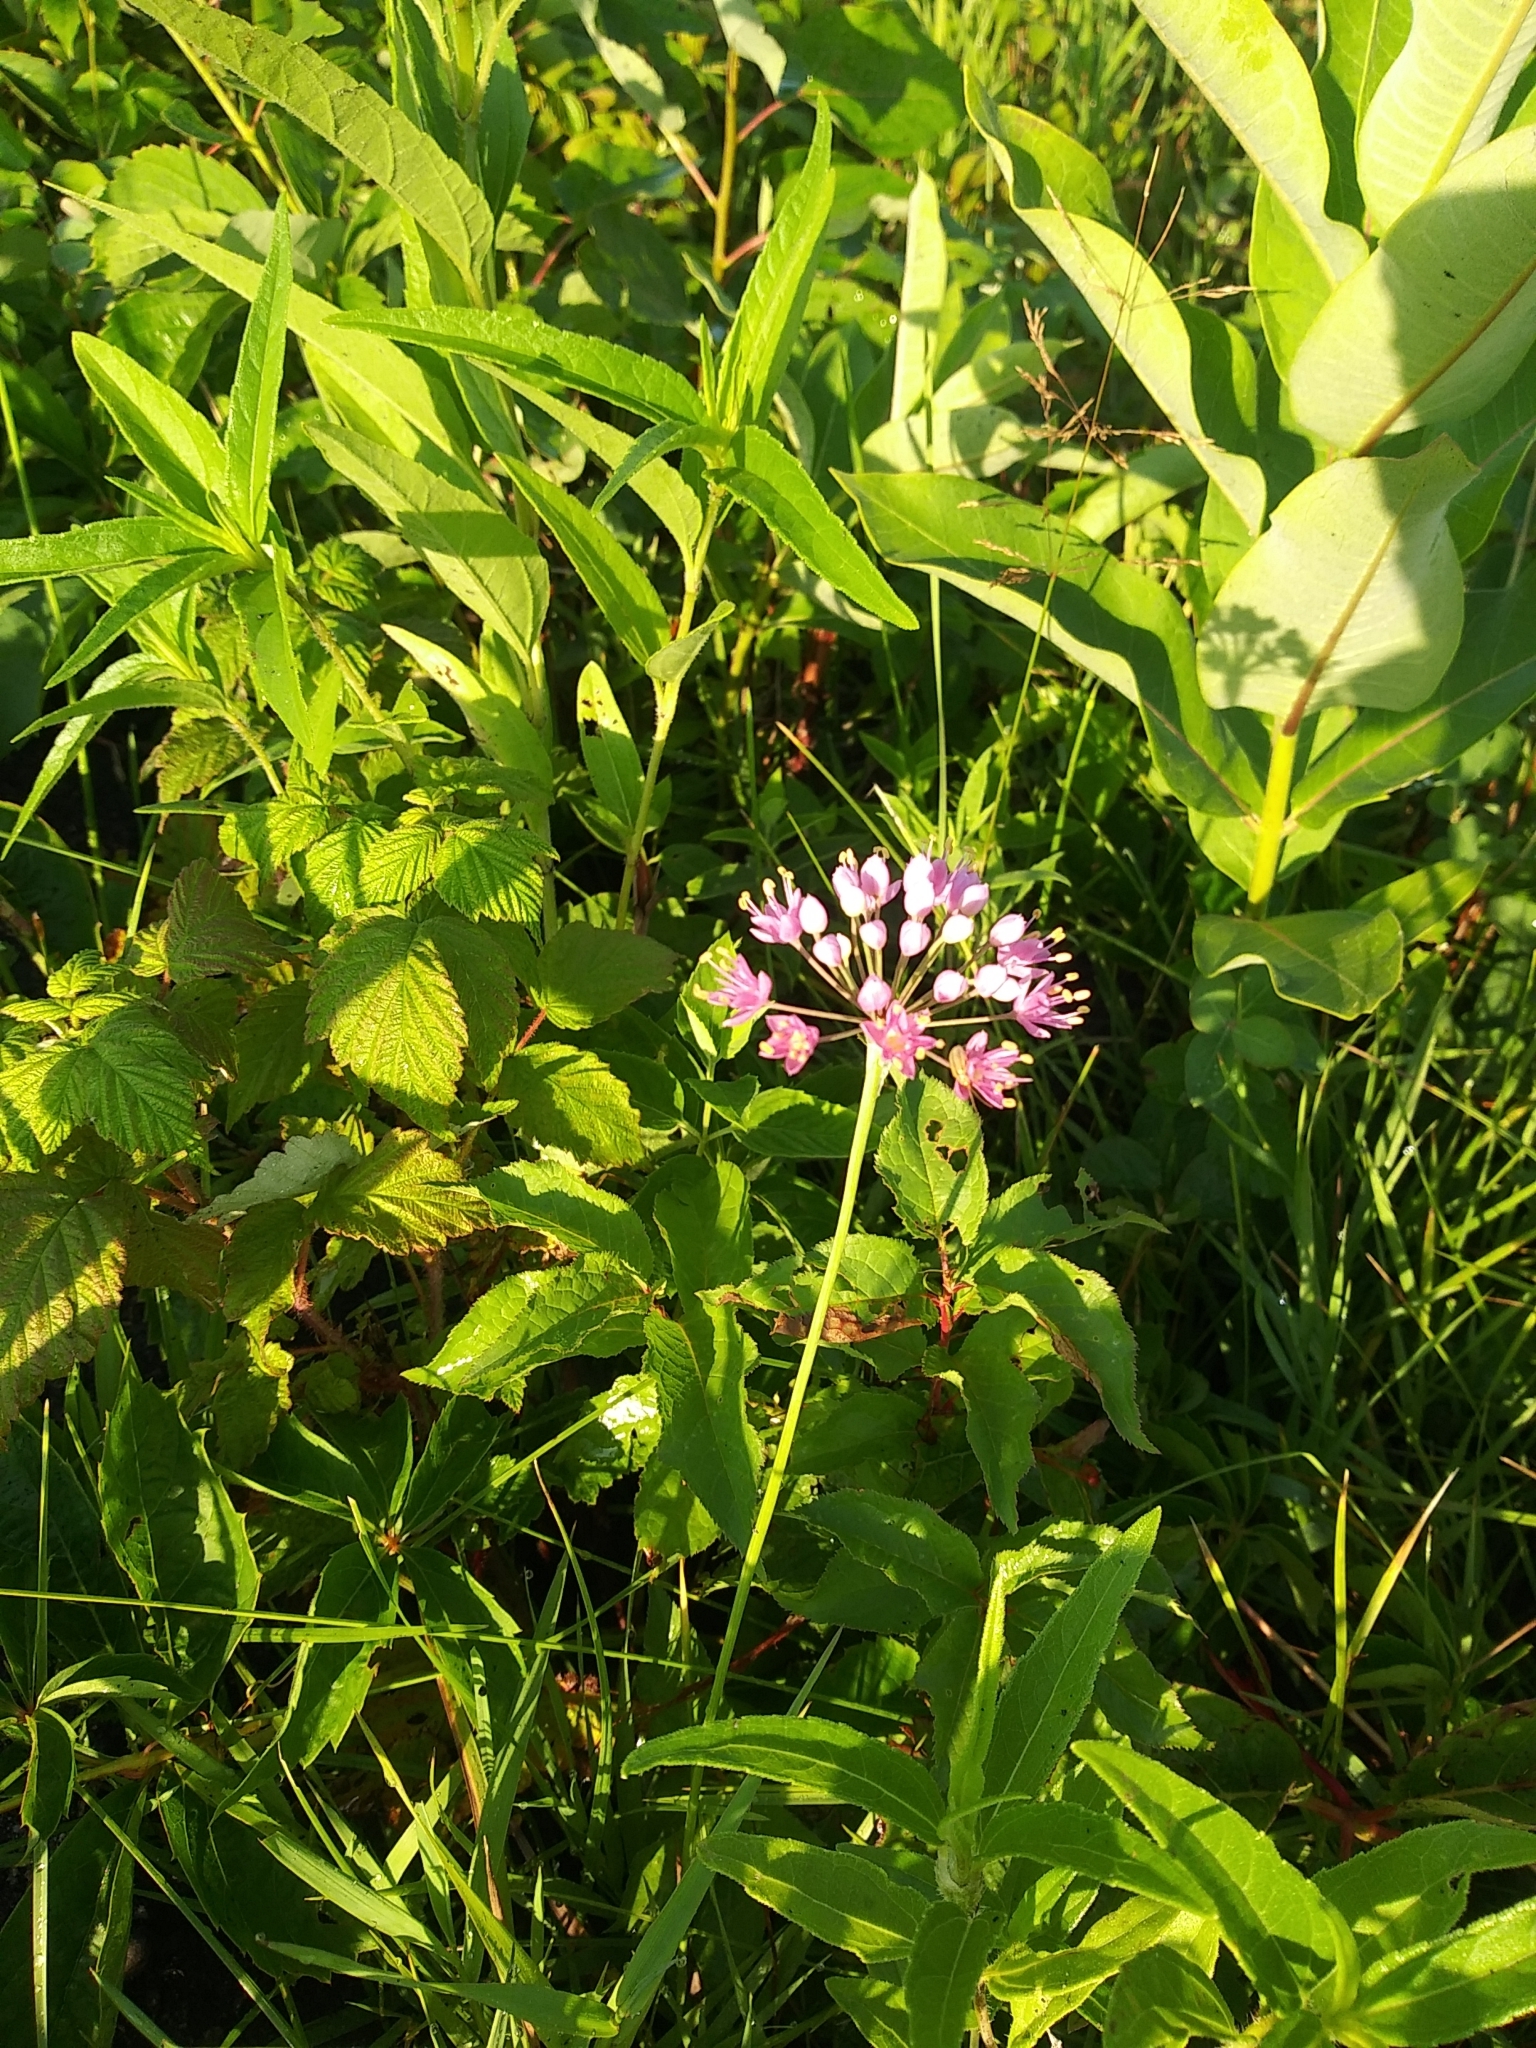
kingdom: Plantae
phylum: Tracheophyta
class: Liliopsida
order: Asparagales
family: Amaryllidaceae
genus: Allium
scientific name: Allium stellatum
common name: Autumn onion
